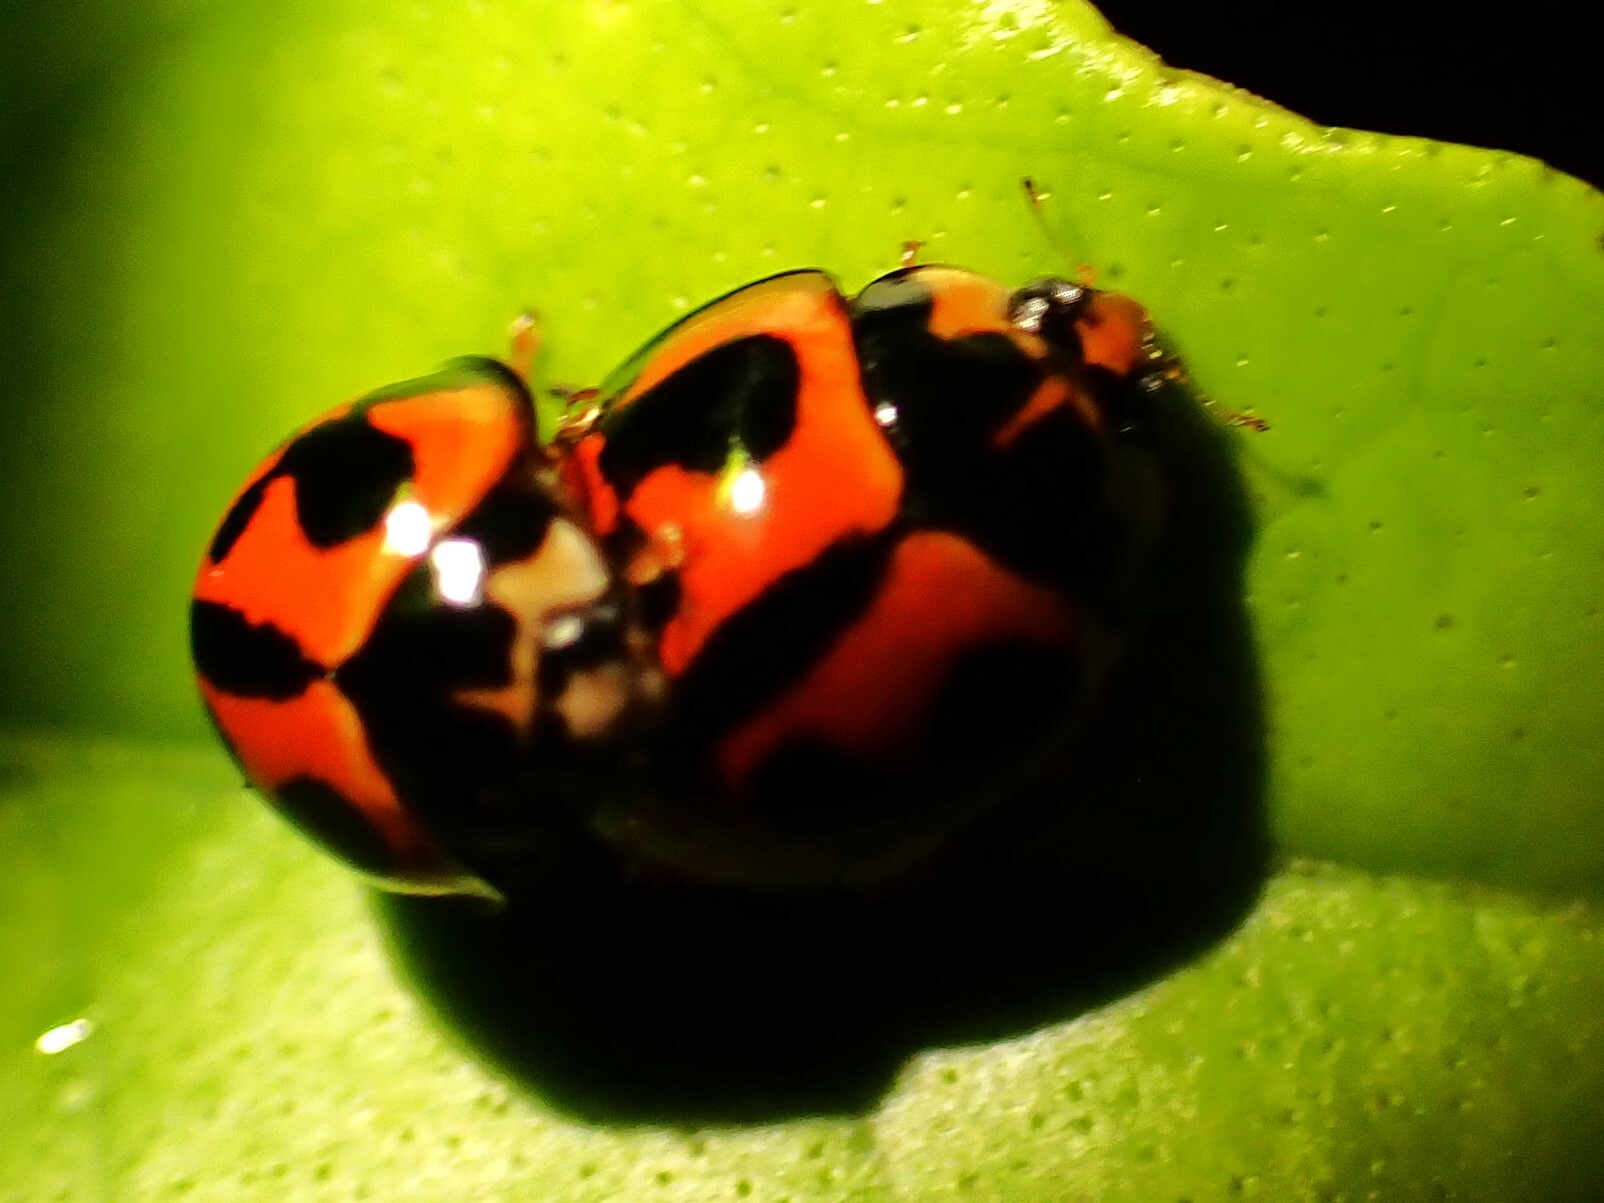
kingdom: Animalia
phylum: Arthropoda
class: Insecta
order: Coleoptera
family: Coccinellidae
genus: Coelophora
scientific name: Coelophora inaequalis
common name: Common australian lady beetle
